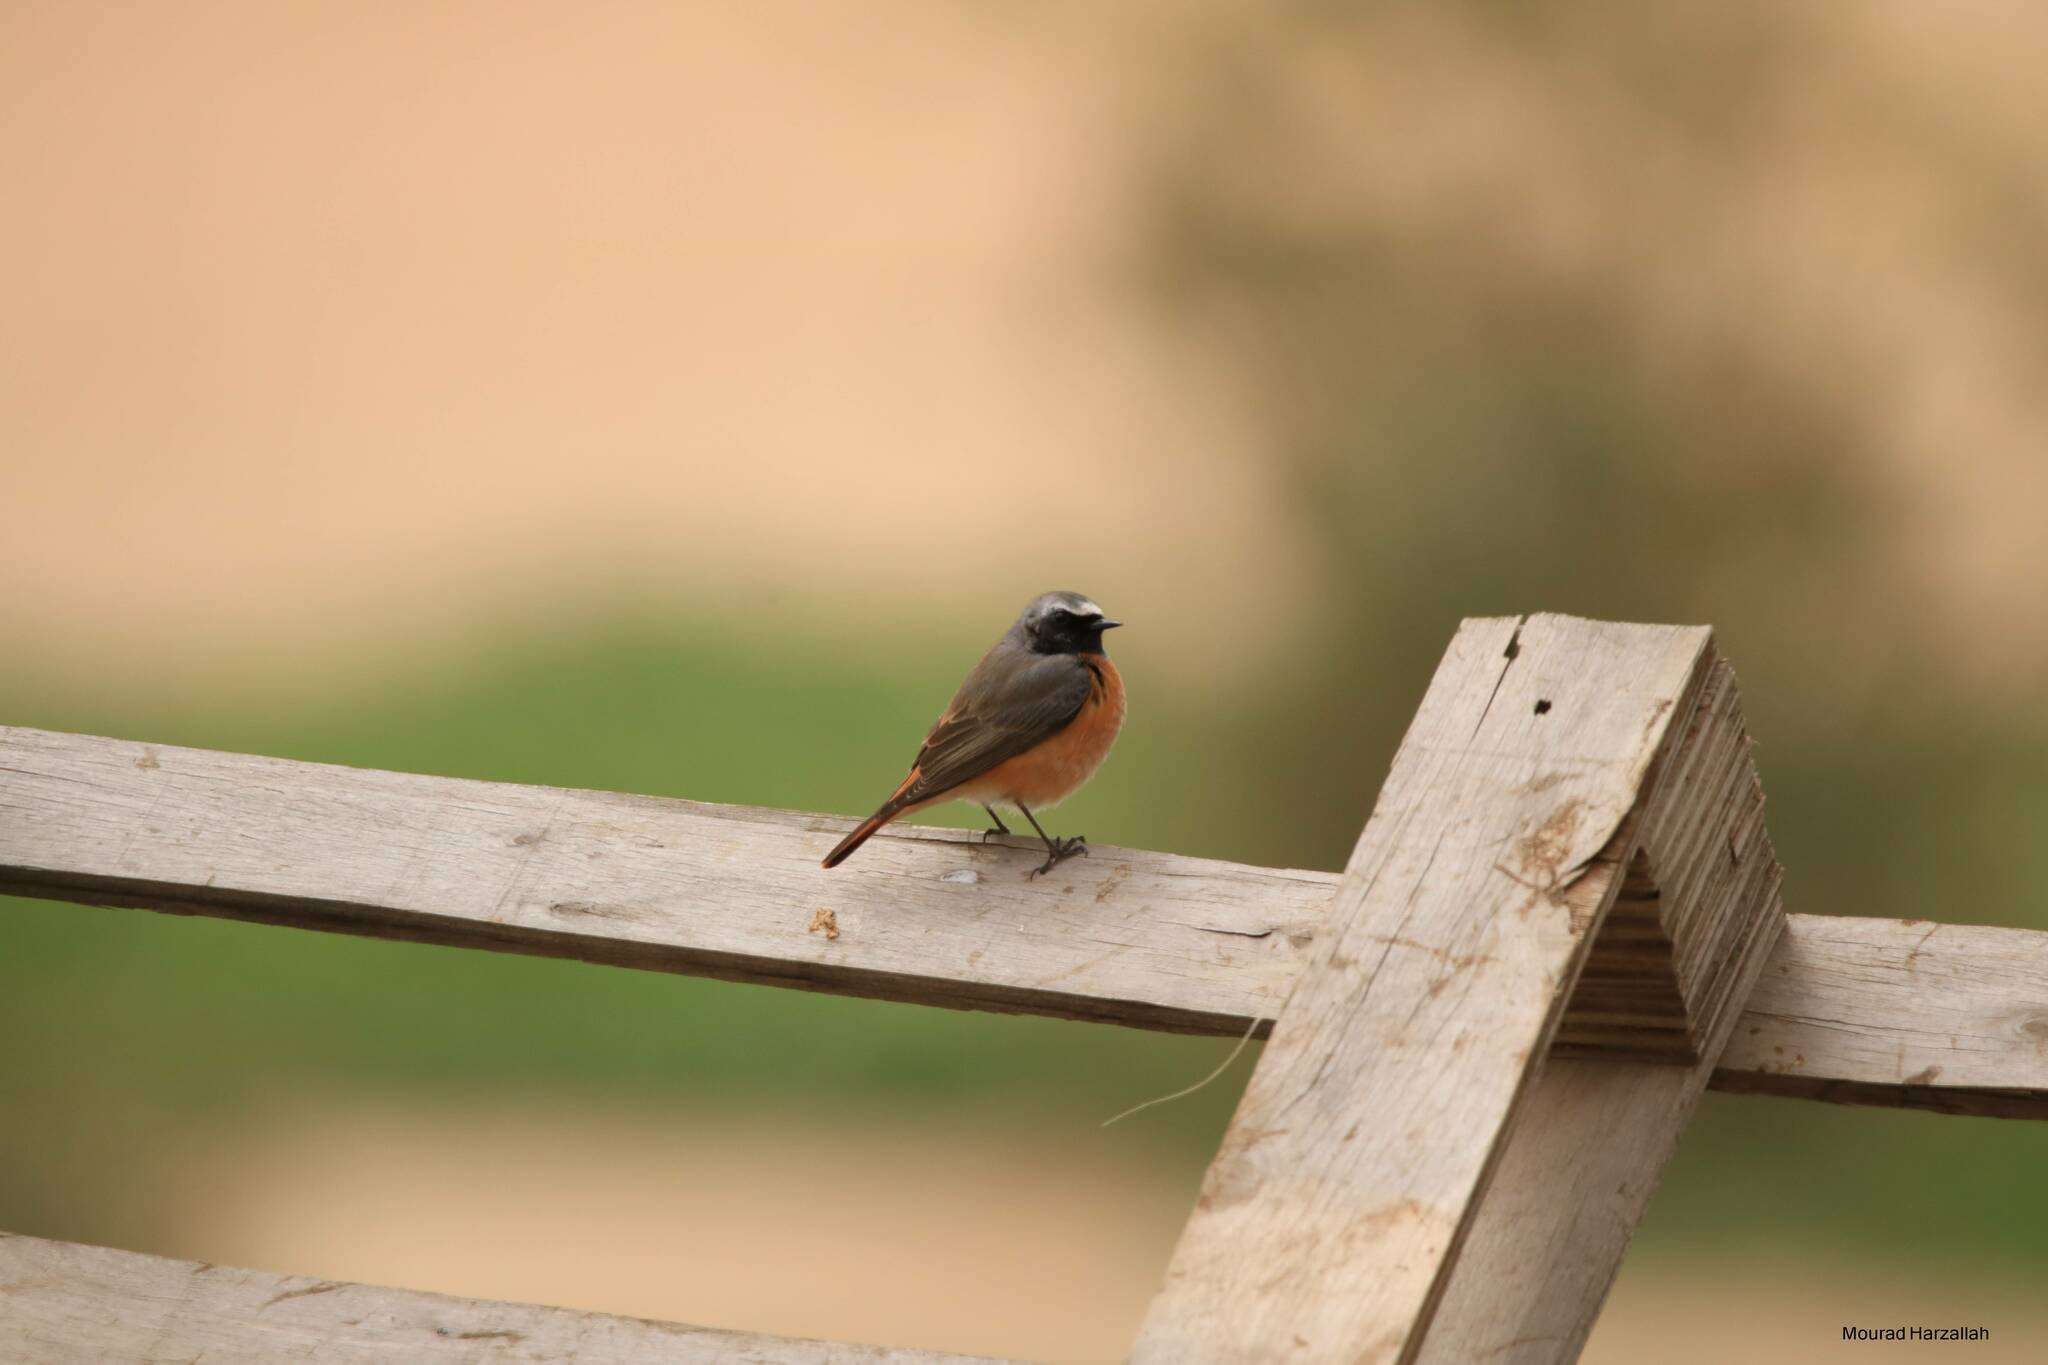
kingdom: Animalia
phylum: Chordata
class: Aves
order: Passeriformes
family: Muscicapidae
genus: Phoenicurus
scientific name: Phoenicurus phoenicurus
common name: Common redstart
